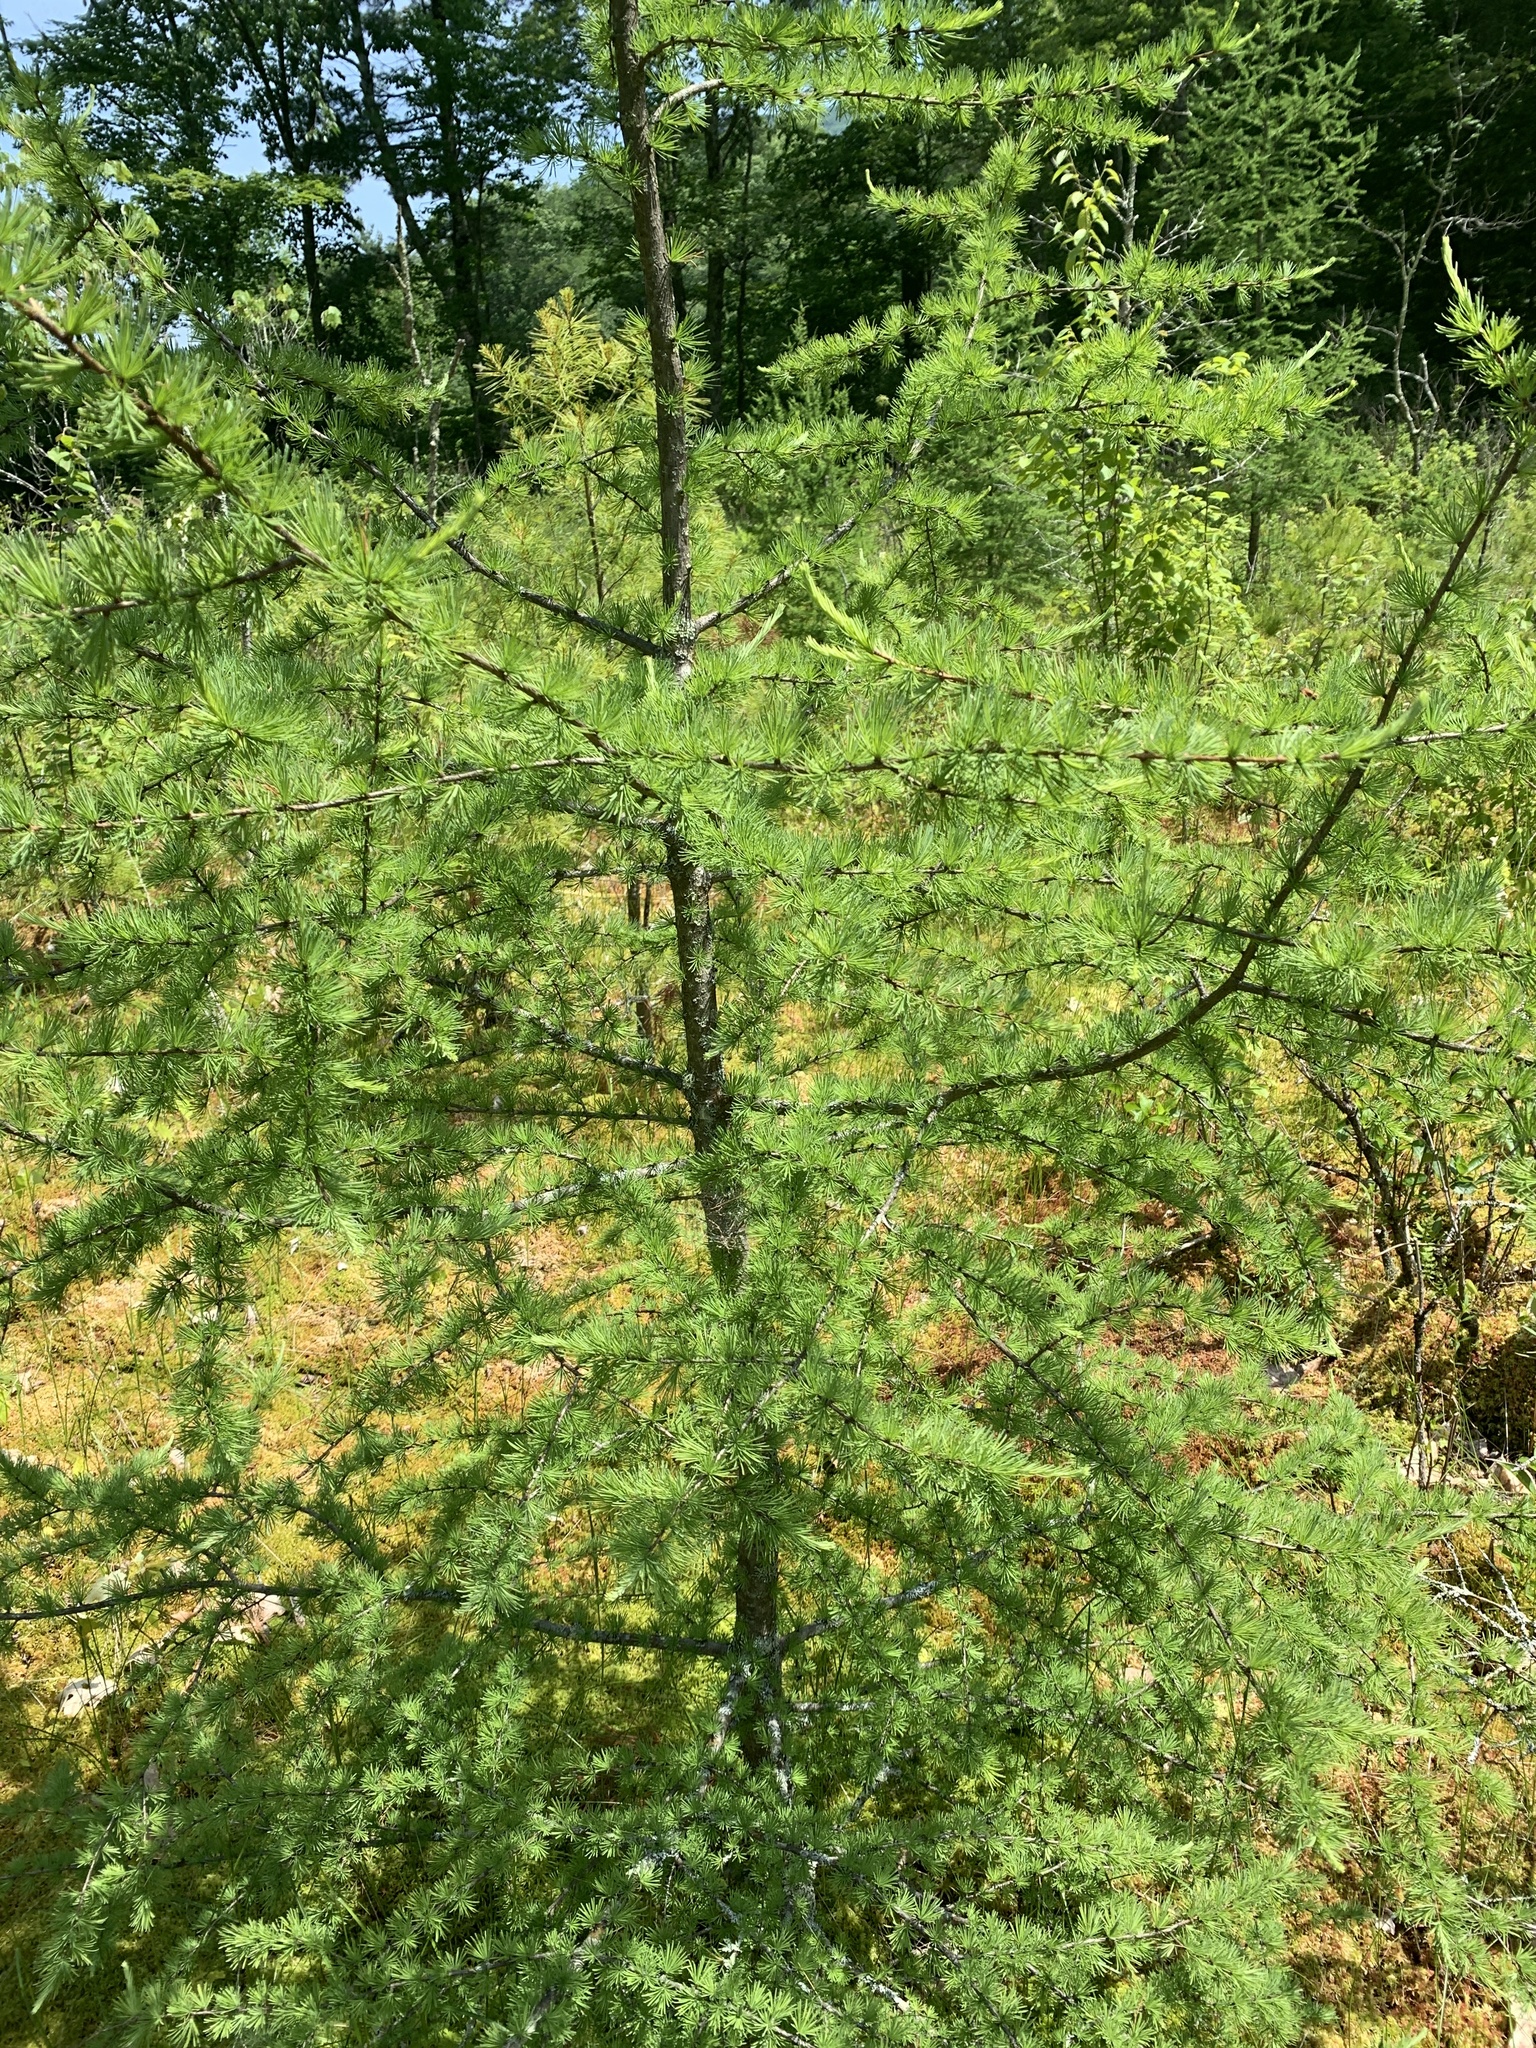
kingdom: Plantae
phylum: Tracheophyta
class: Pinopsida
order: Pinales
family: Pinaceae
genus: Larix
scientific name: Larix laricina
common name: American larch
